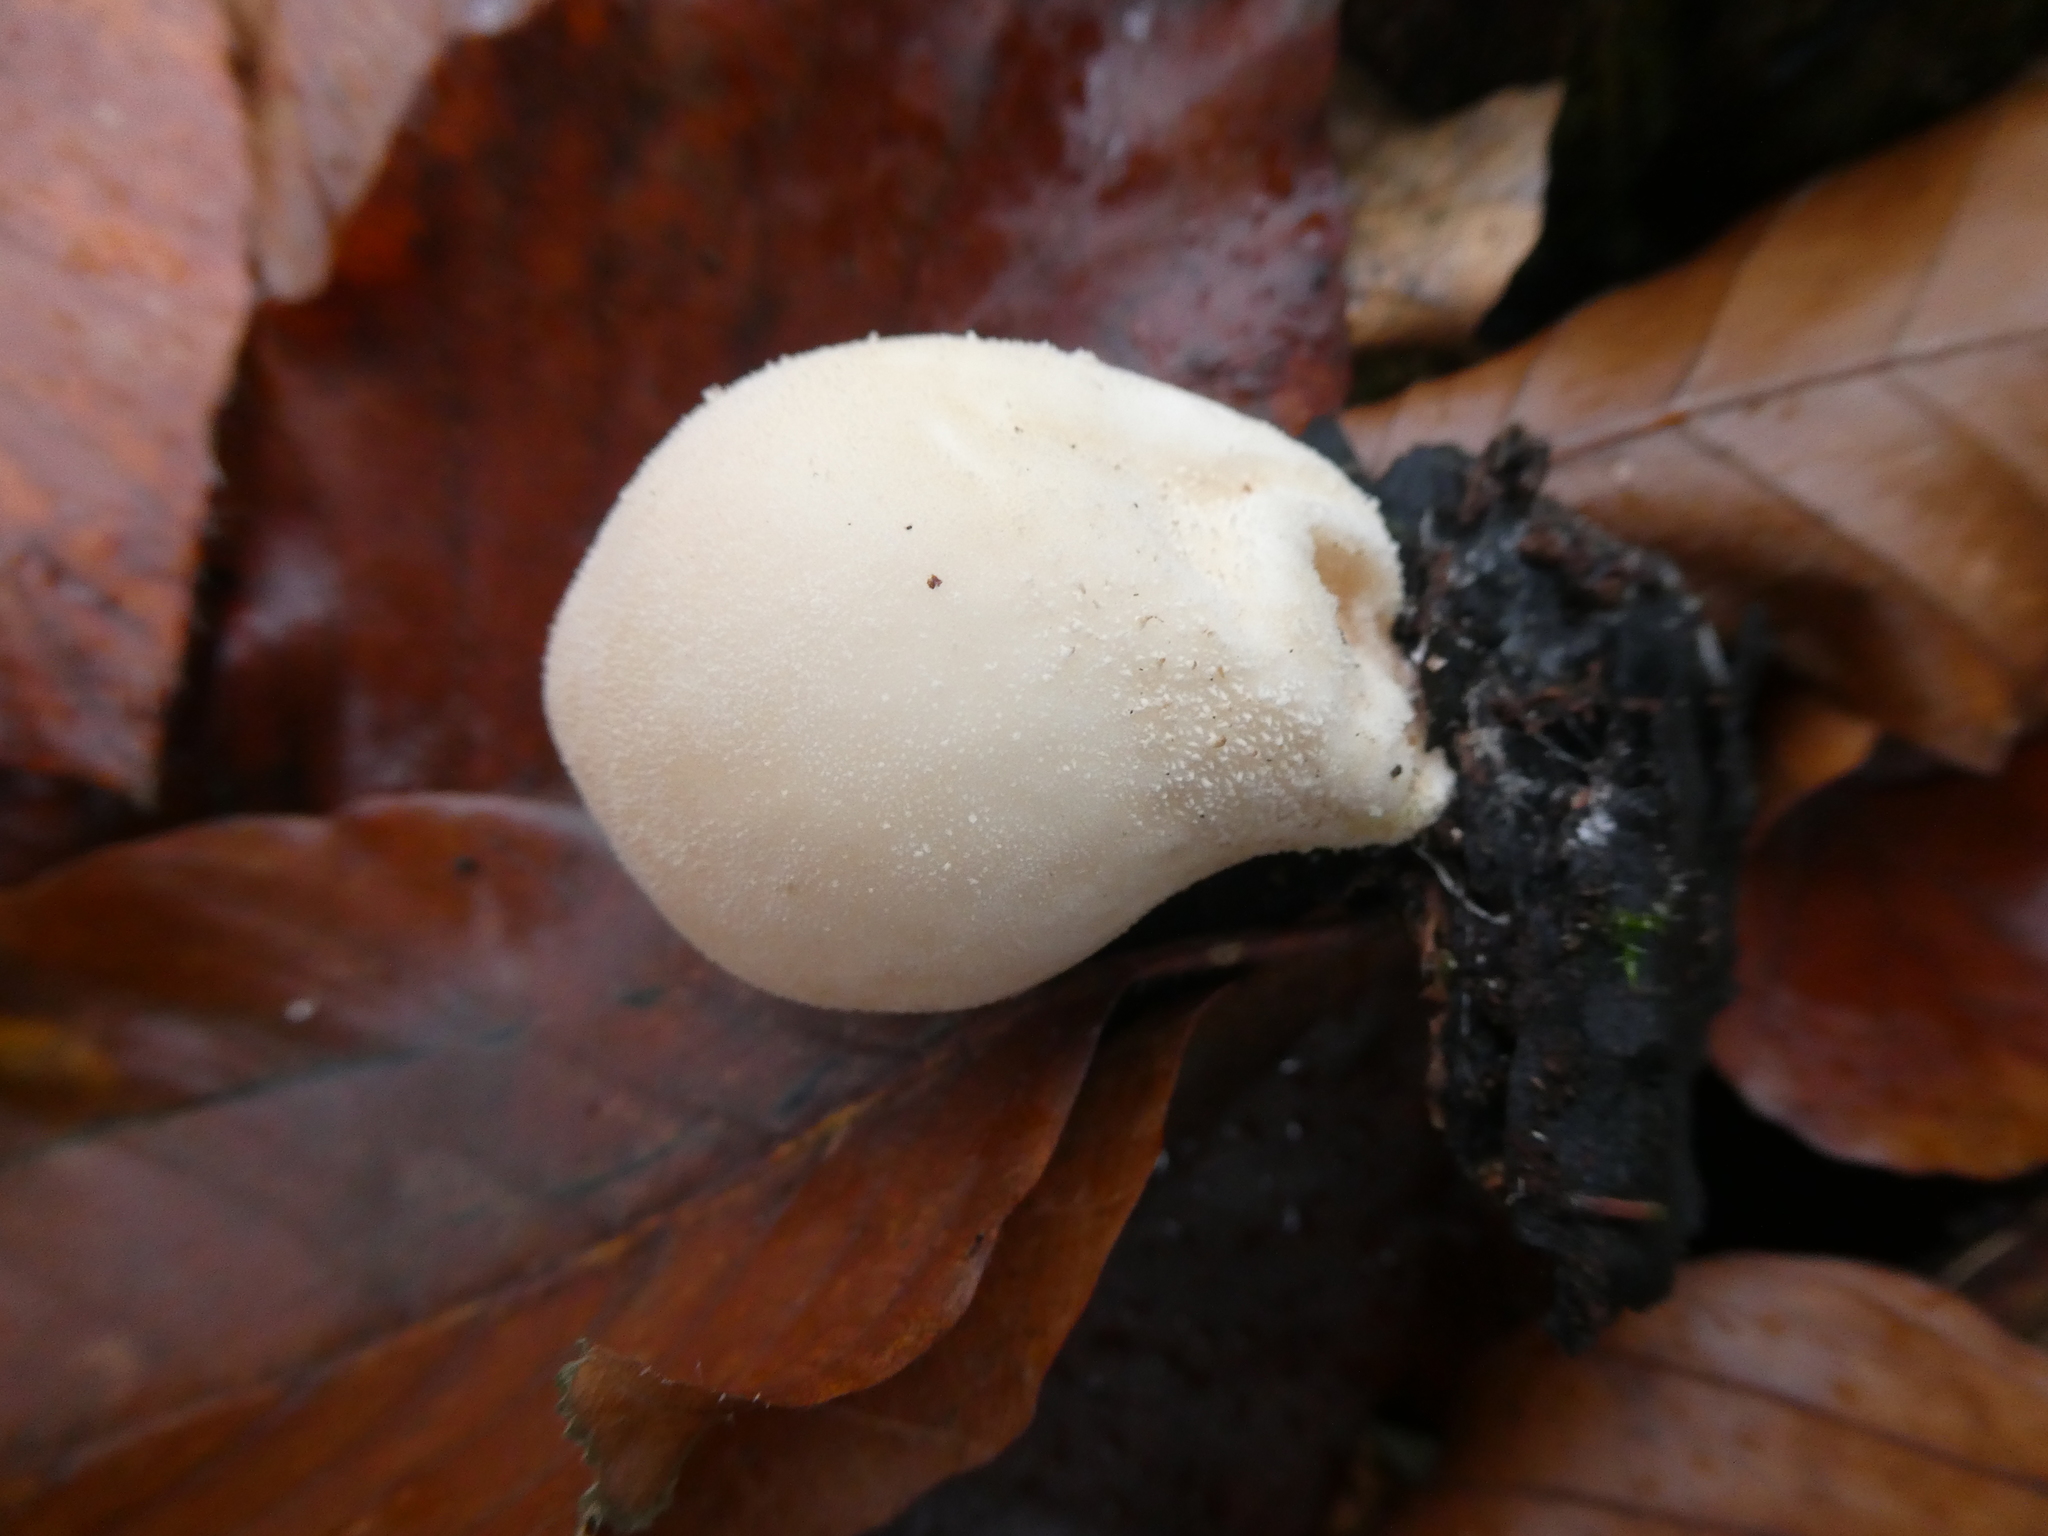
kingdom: Fungi
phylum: Basidiomycota
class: Agaricomycetes
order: Agaricales
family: Lycoperdaceae
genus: Apioperdon
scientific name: Apioperdon pyriforme
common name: Pear-shaped puffball
